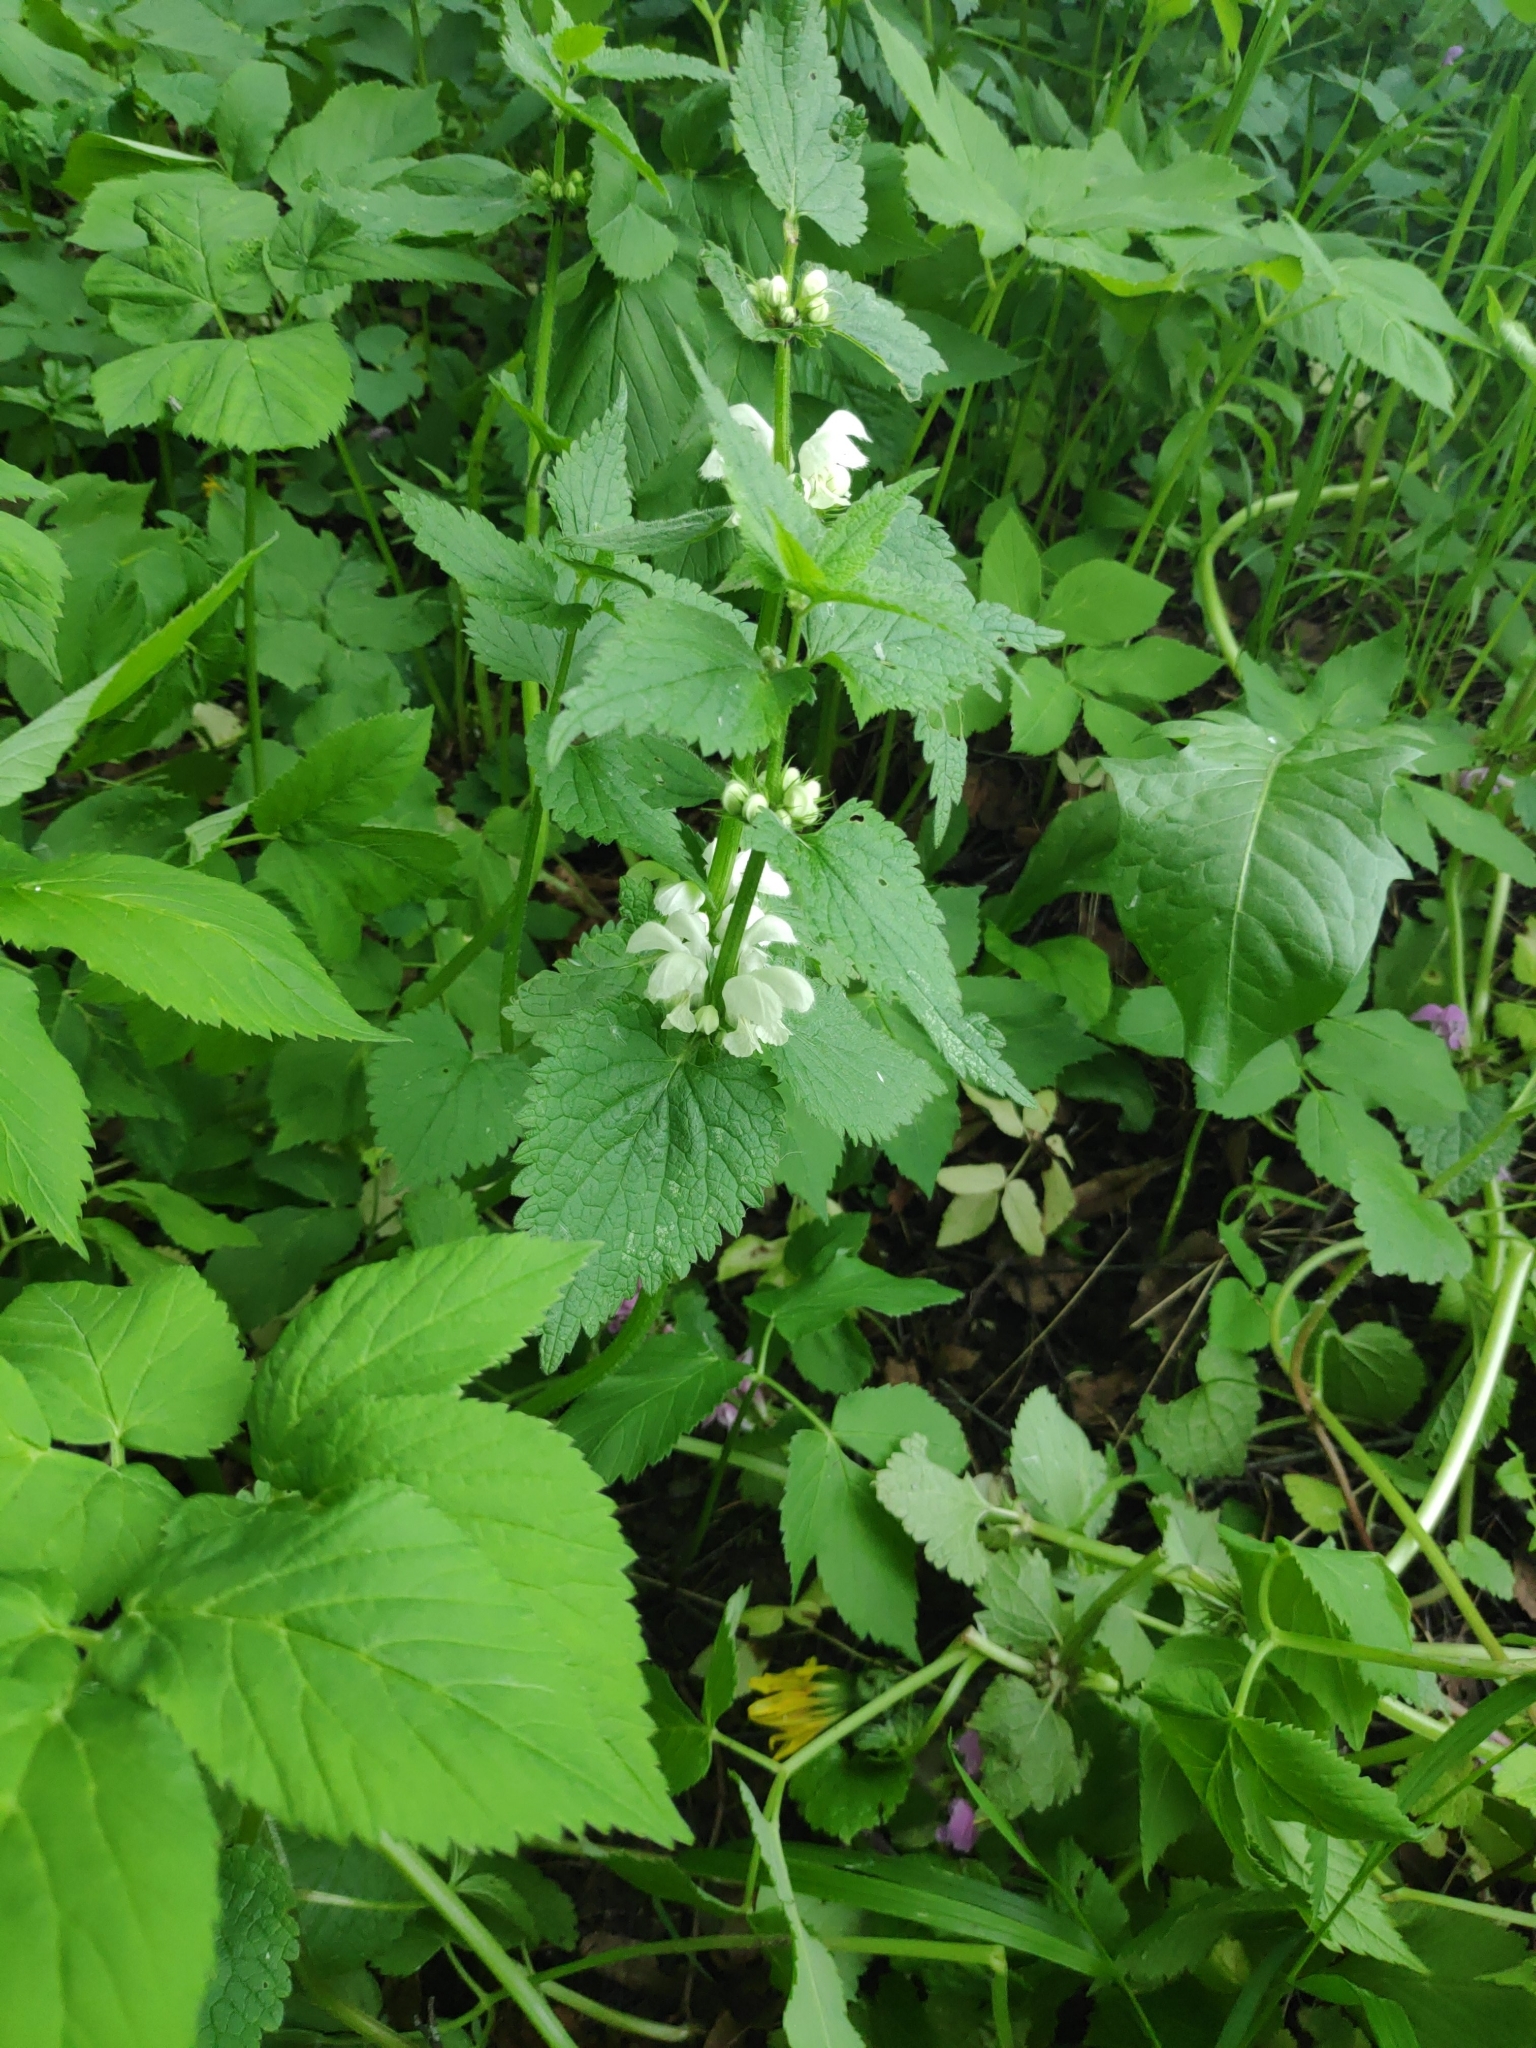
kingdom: Plantae
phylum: Tracheophyta
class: Magnoliopsida
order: Lamiales
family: Lamiaceae
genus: Lamium
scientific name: Lamium album
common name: White dead-nettle
